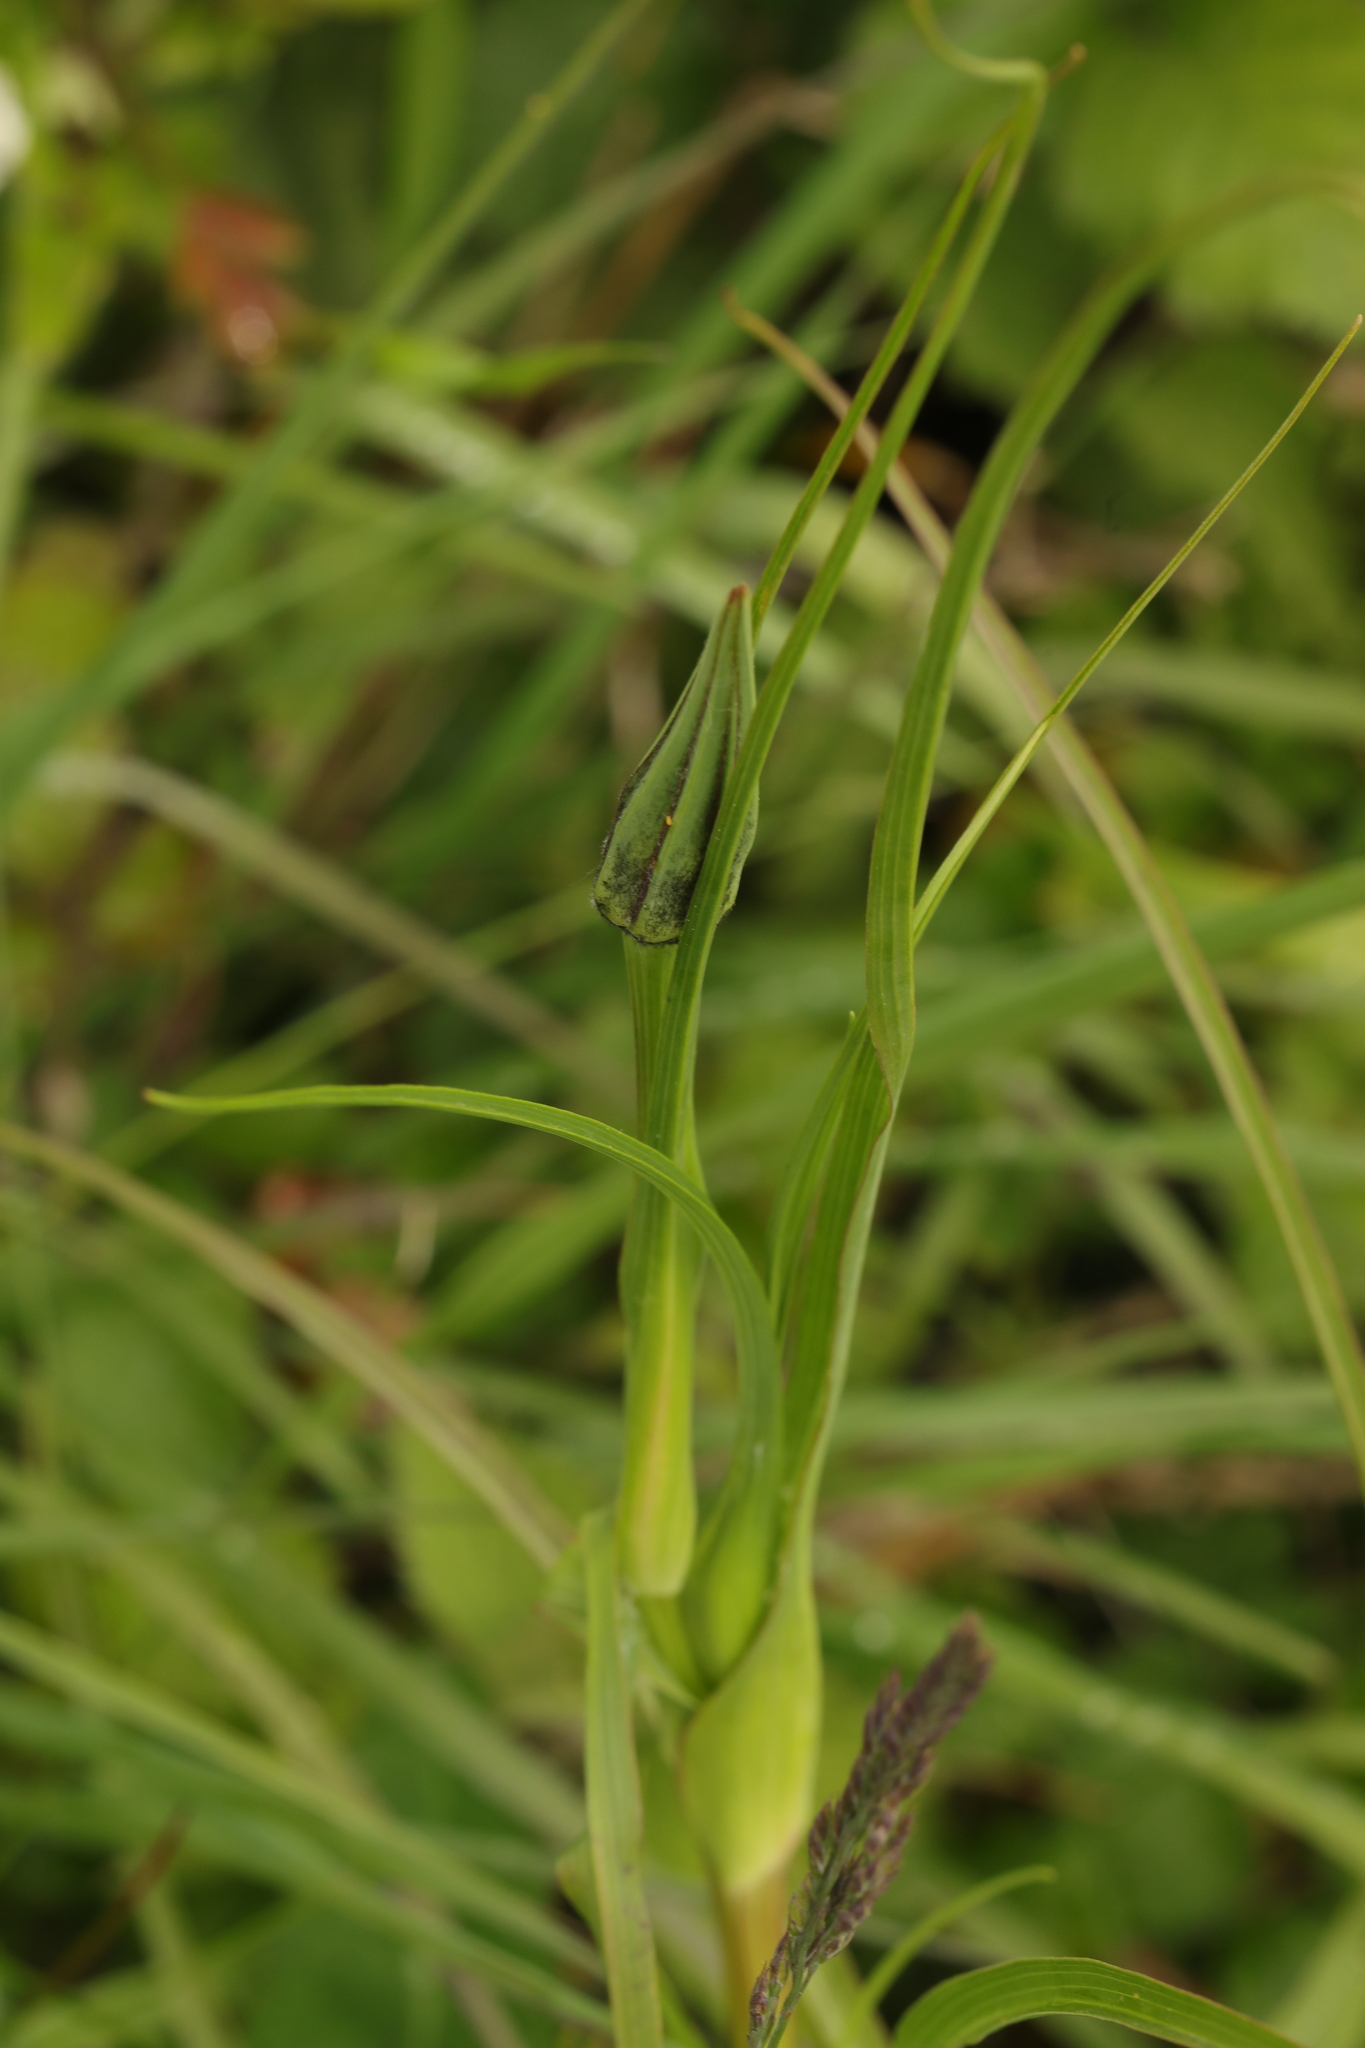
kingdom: Plantae
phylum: Tracheophyta
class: Magnoliopsida
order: Asterales
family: Asteraceae
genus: Tragopogon
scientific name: Tragopogon pratensis
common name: Goat's-beard
